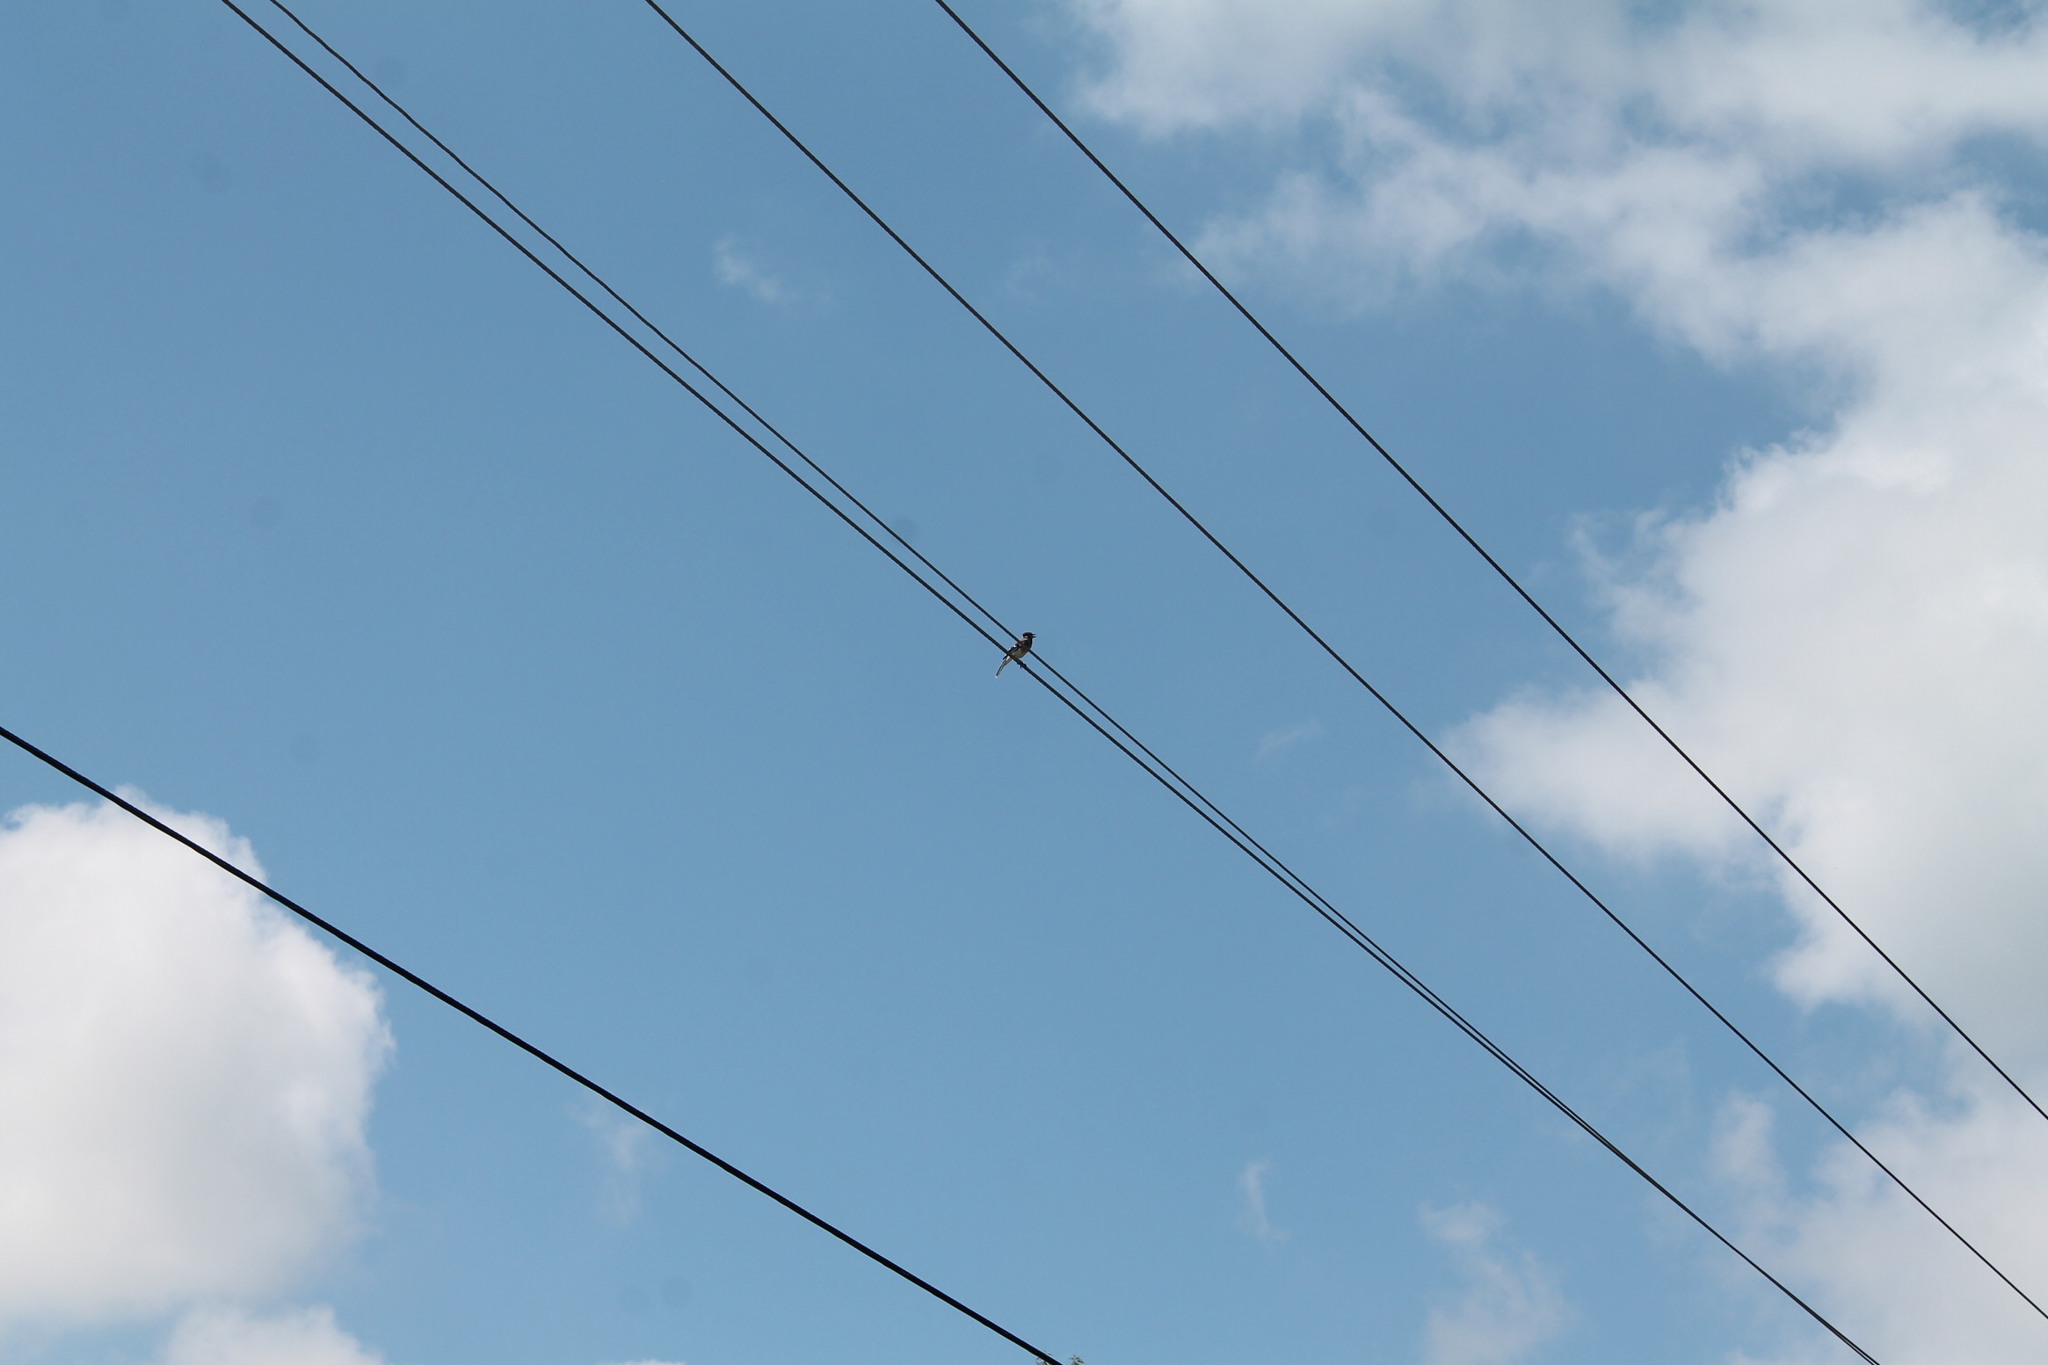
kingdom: Animalia
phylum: Chordata
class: Aves
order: Passeriformes
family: Corvidae
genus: Cyanocitta
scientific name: Cyanocitta cristata
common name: Blue jay
